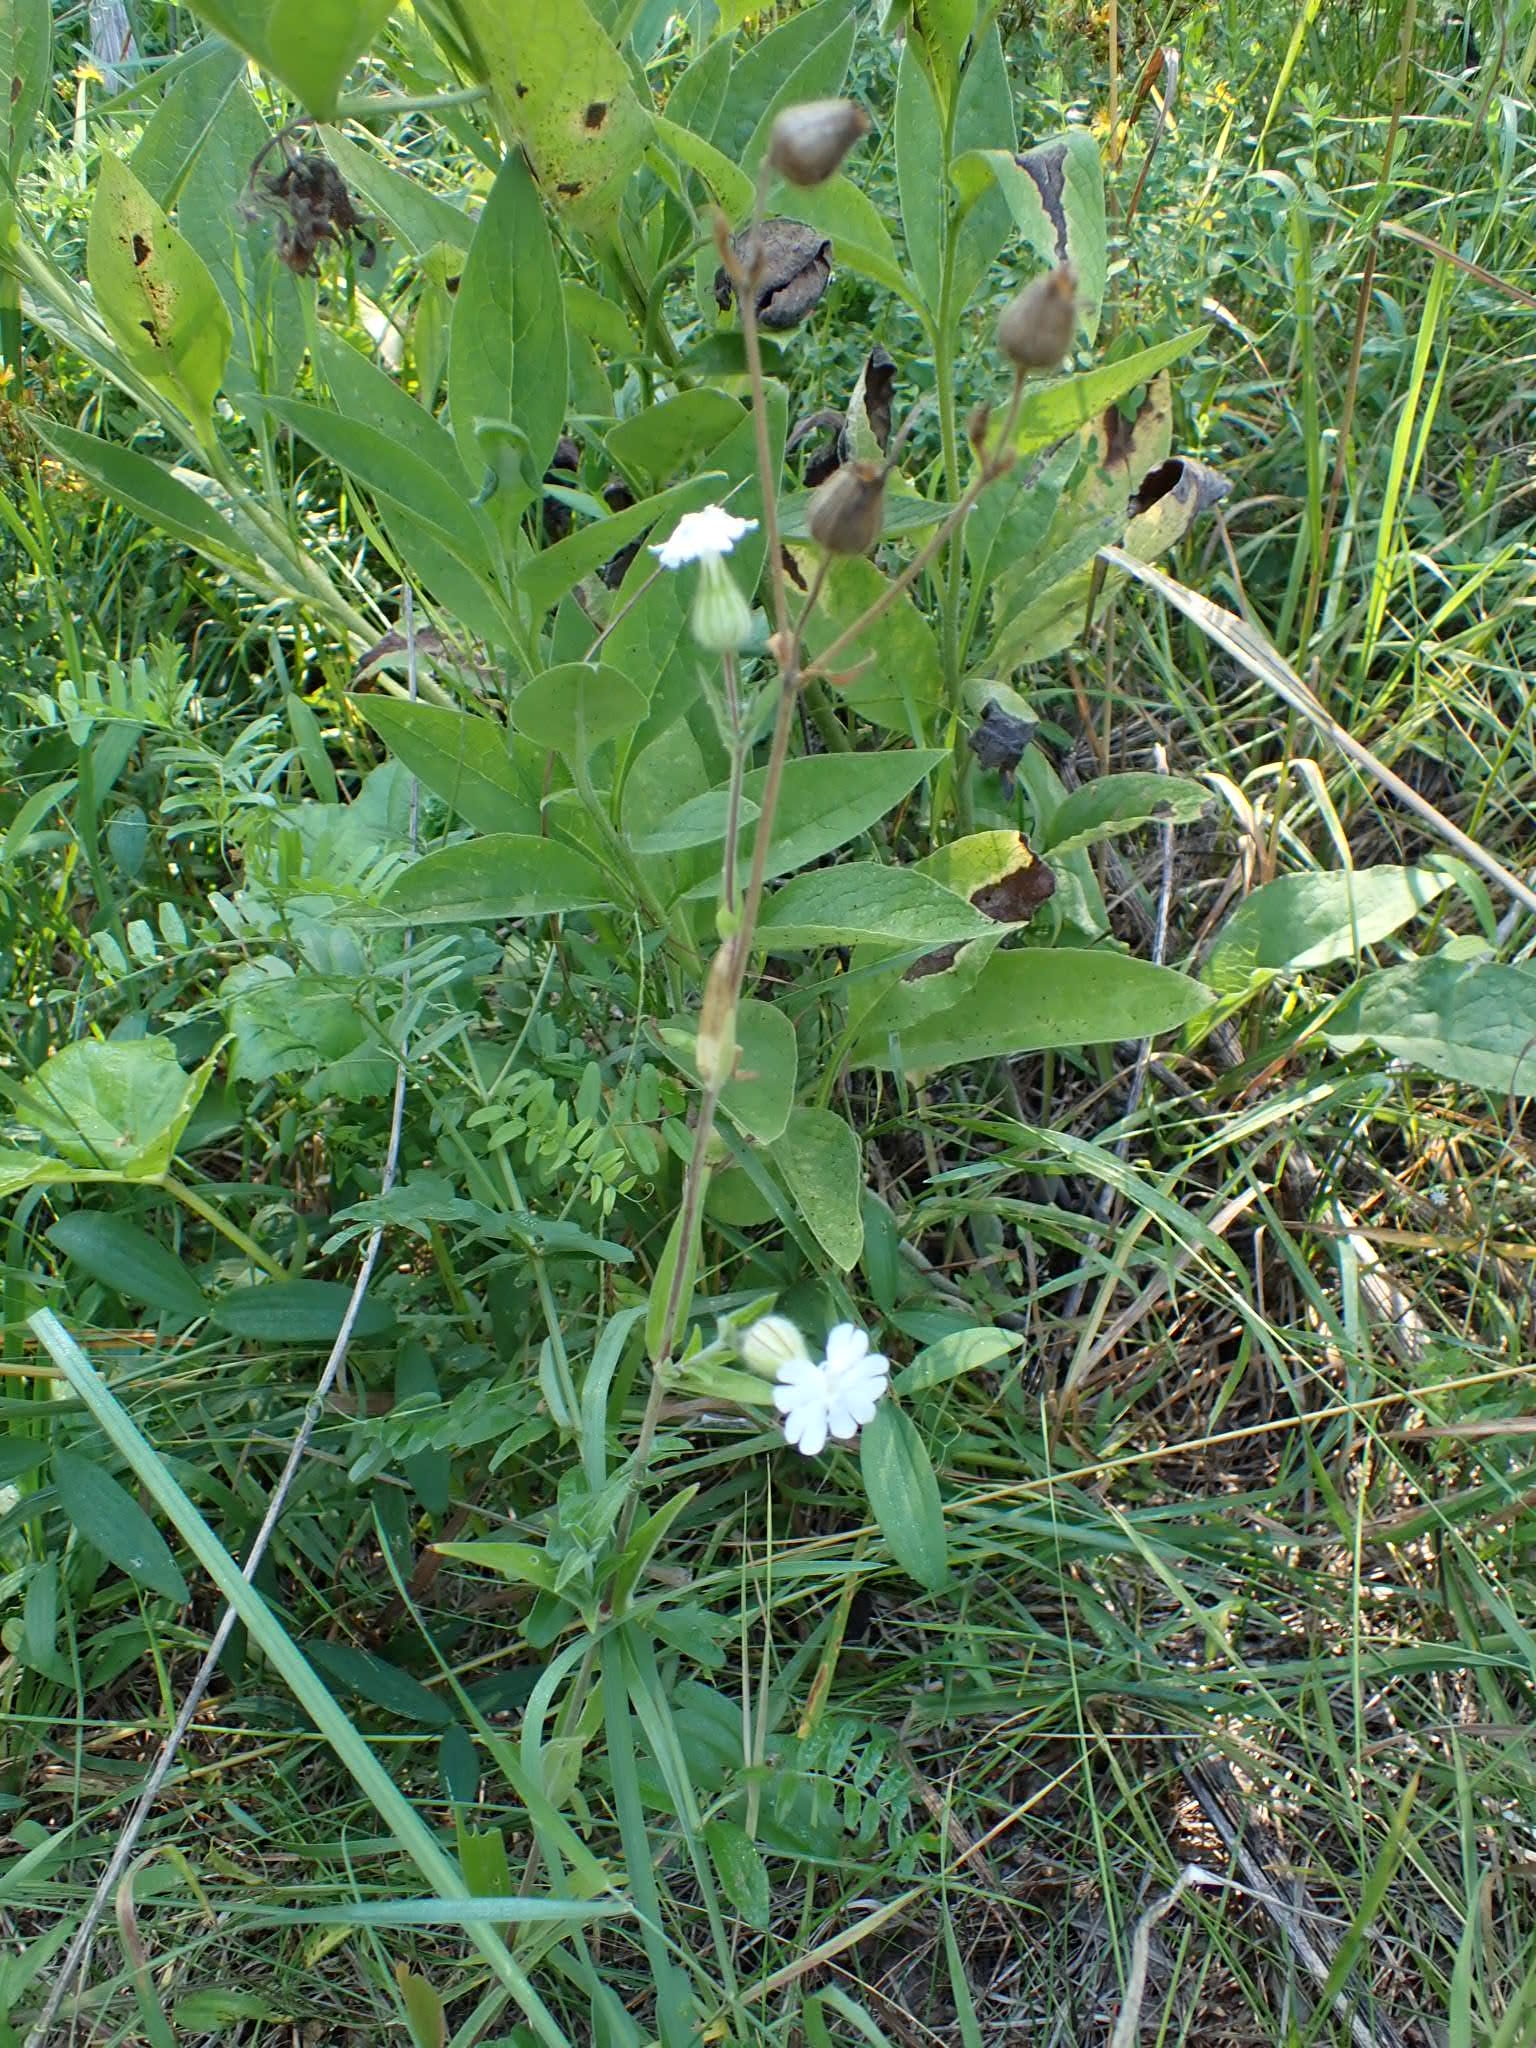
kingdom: Plantae
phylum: Tracheophyta
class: Magnoliopsida
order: Caryophyllales
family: Caryophyllaceae
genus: Silene
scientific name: Silene latifolia
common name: White campion
